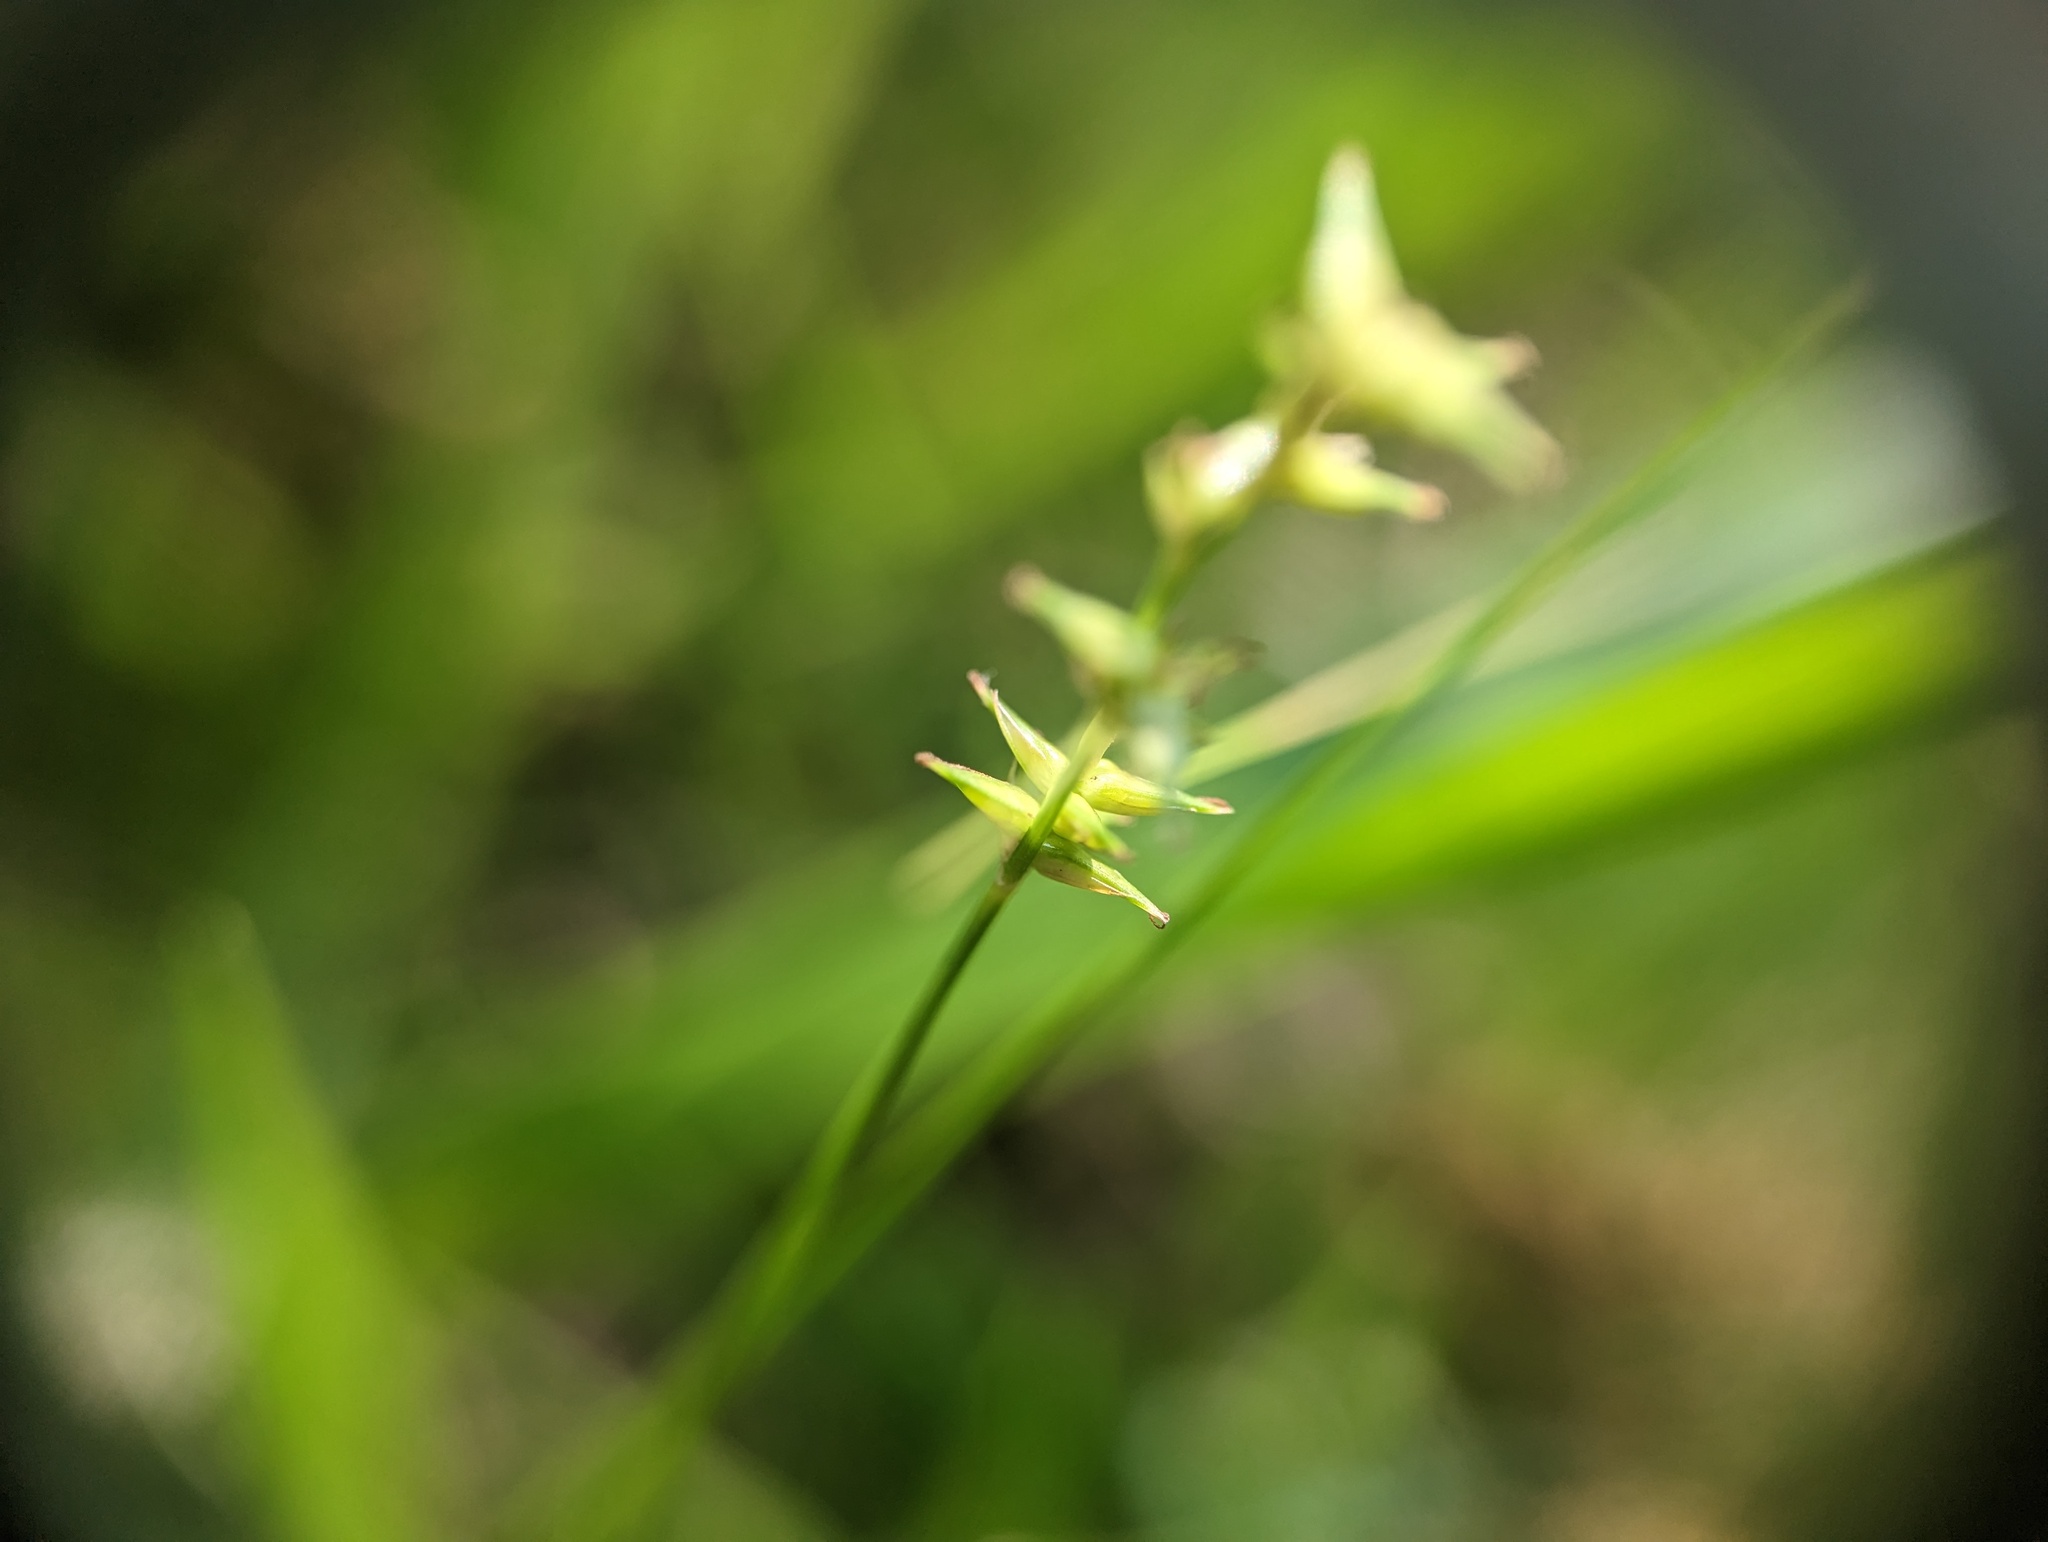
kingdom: Plantae
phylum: Tracheophyta
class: Liliopsida
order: Poales
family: Cyperaceae
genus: Carex
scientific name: Carex radiata
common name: Eastern star sedge
